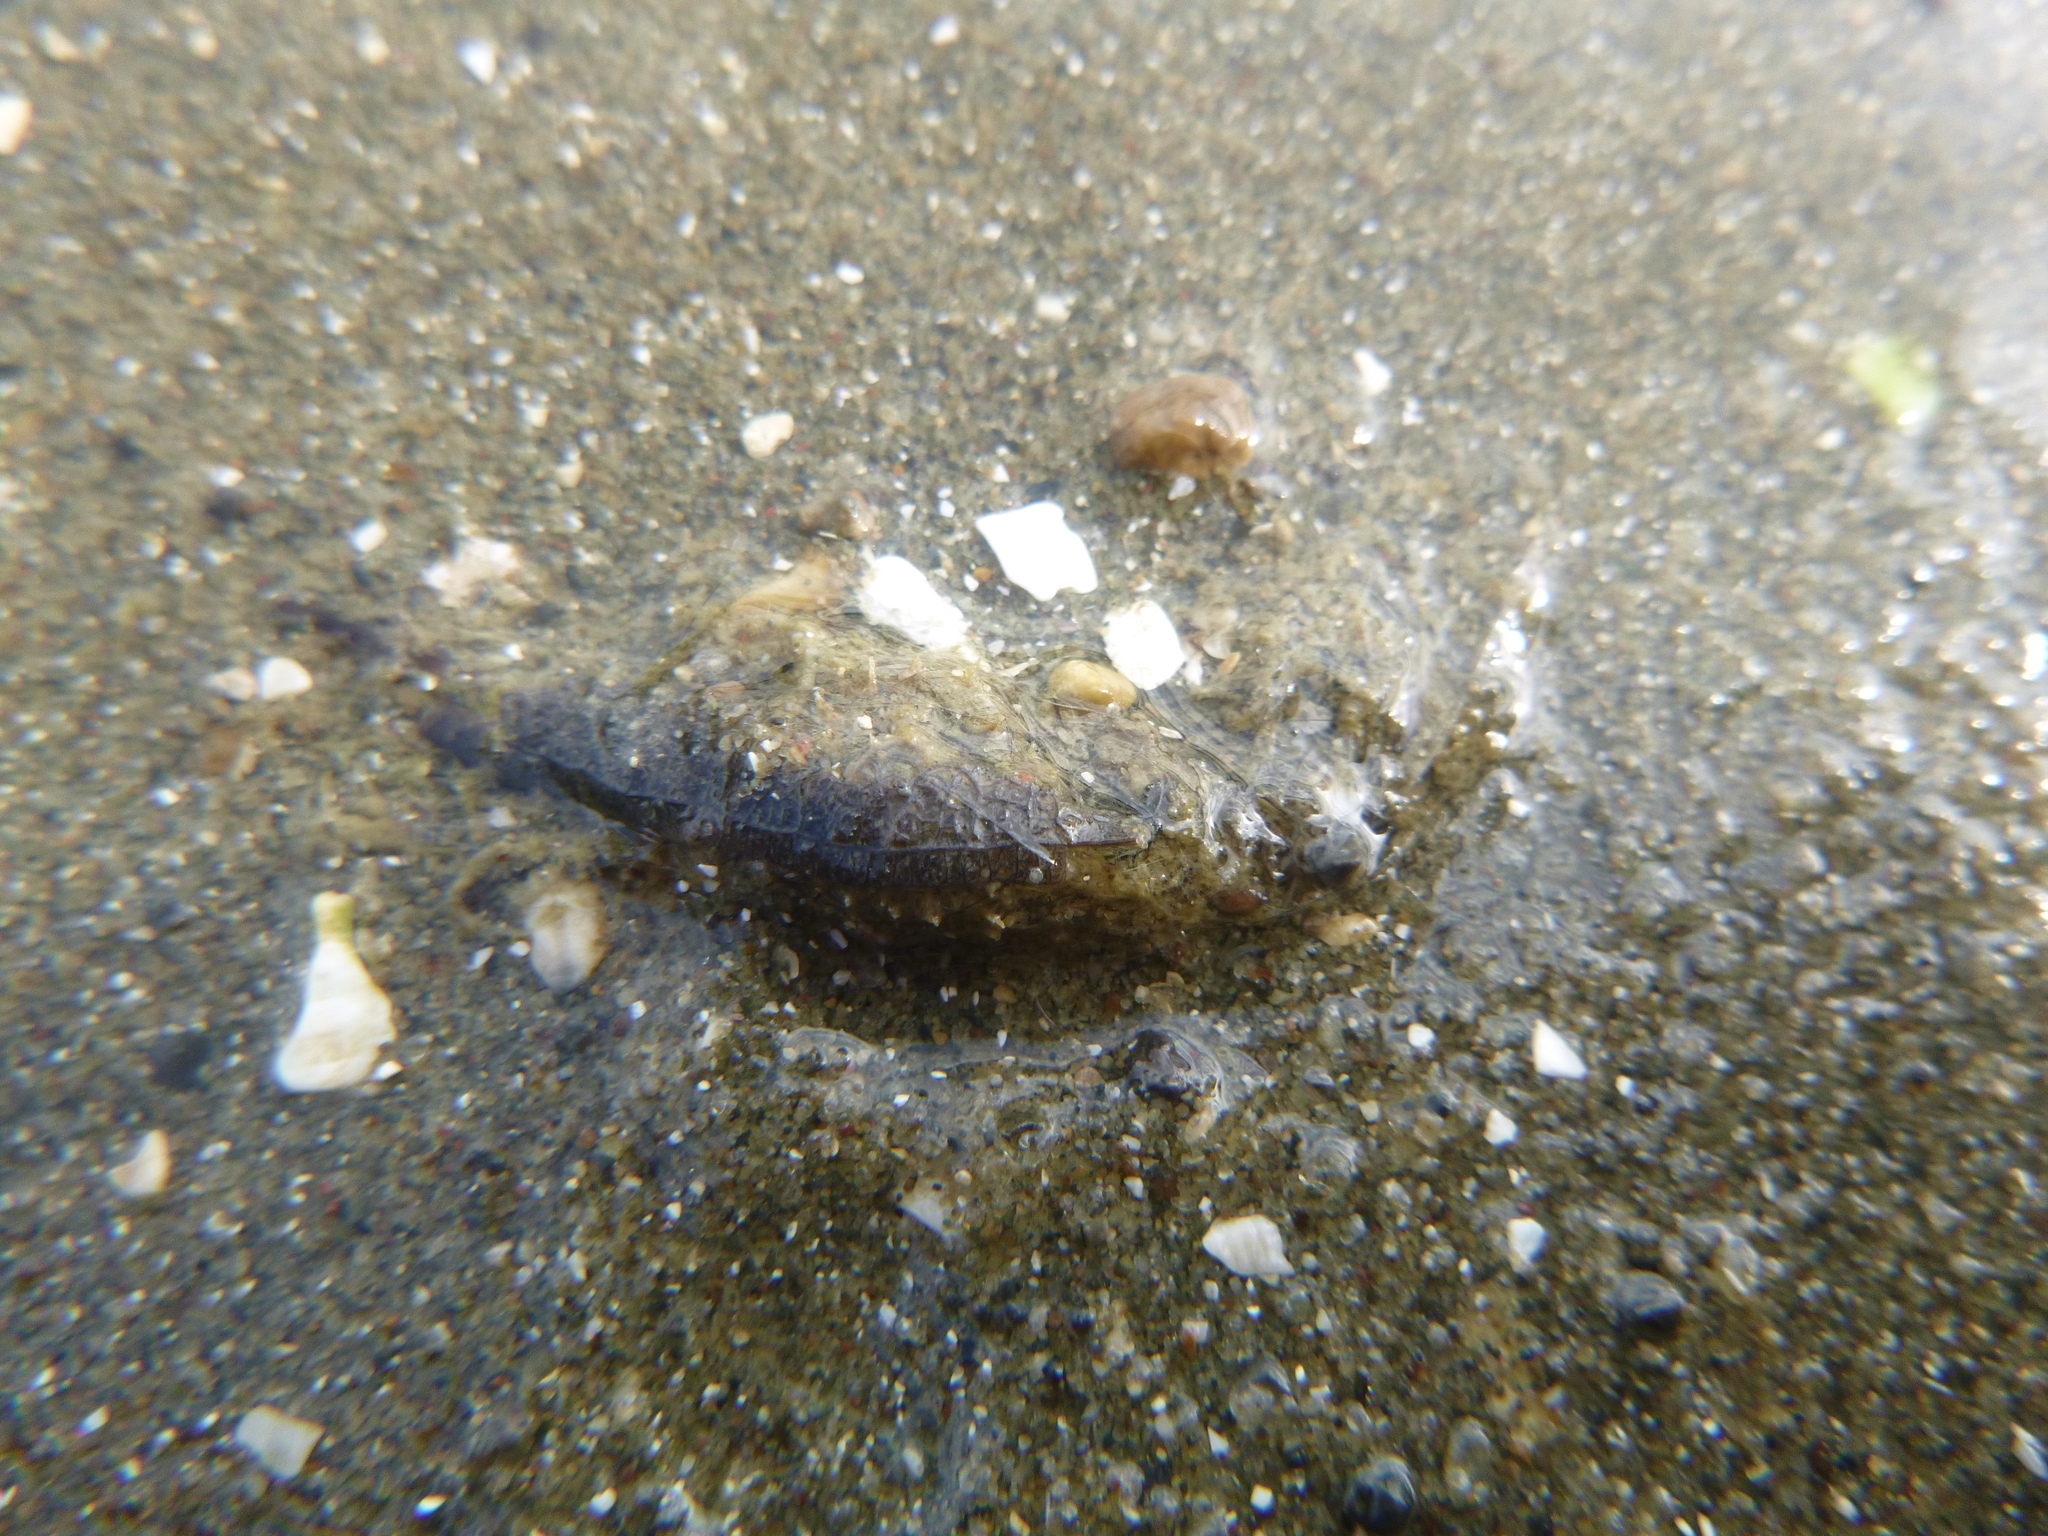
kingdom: Animalia
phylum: Arthropoda
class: Insecta
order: Coleoptera
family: Cerambycidae
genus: Prionoplus
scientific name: Prionoplus reticularis
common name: Huhu beetle
